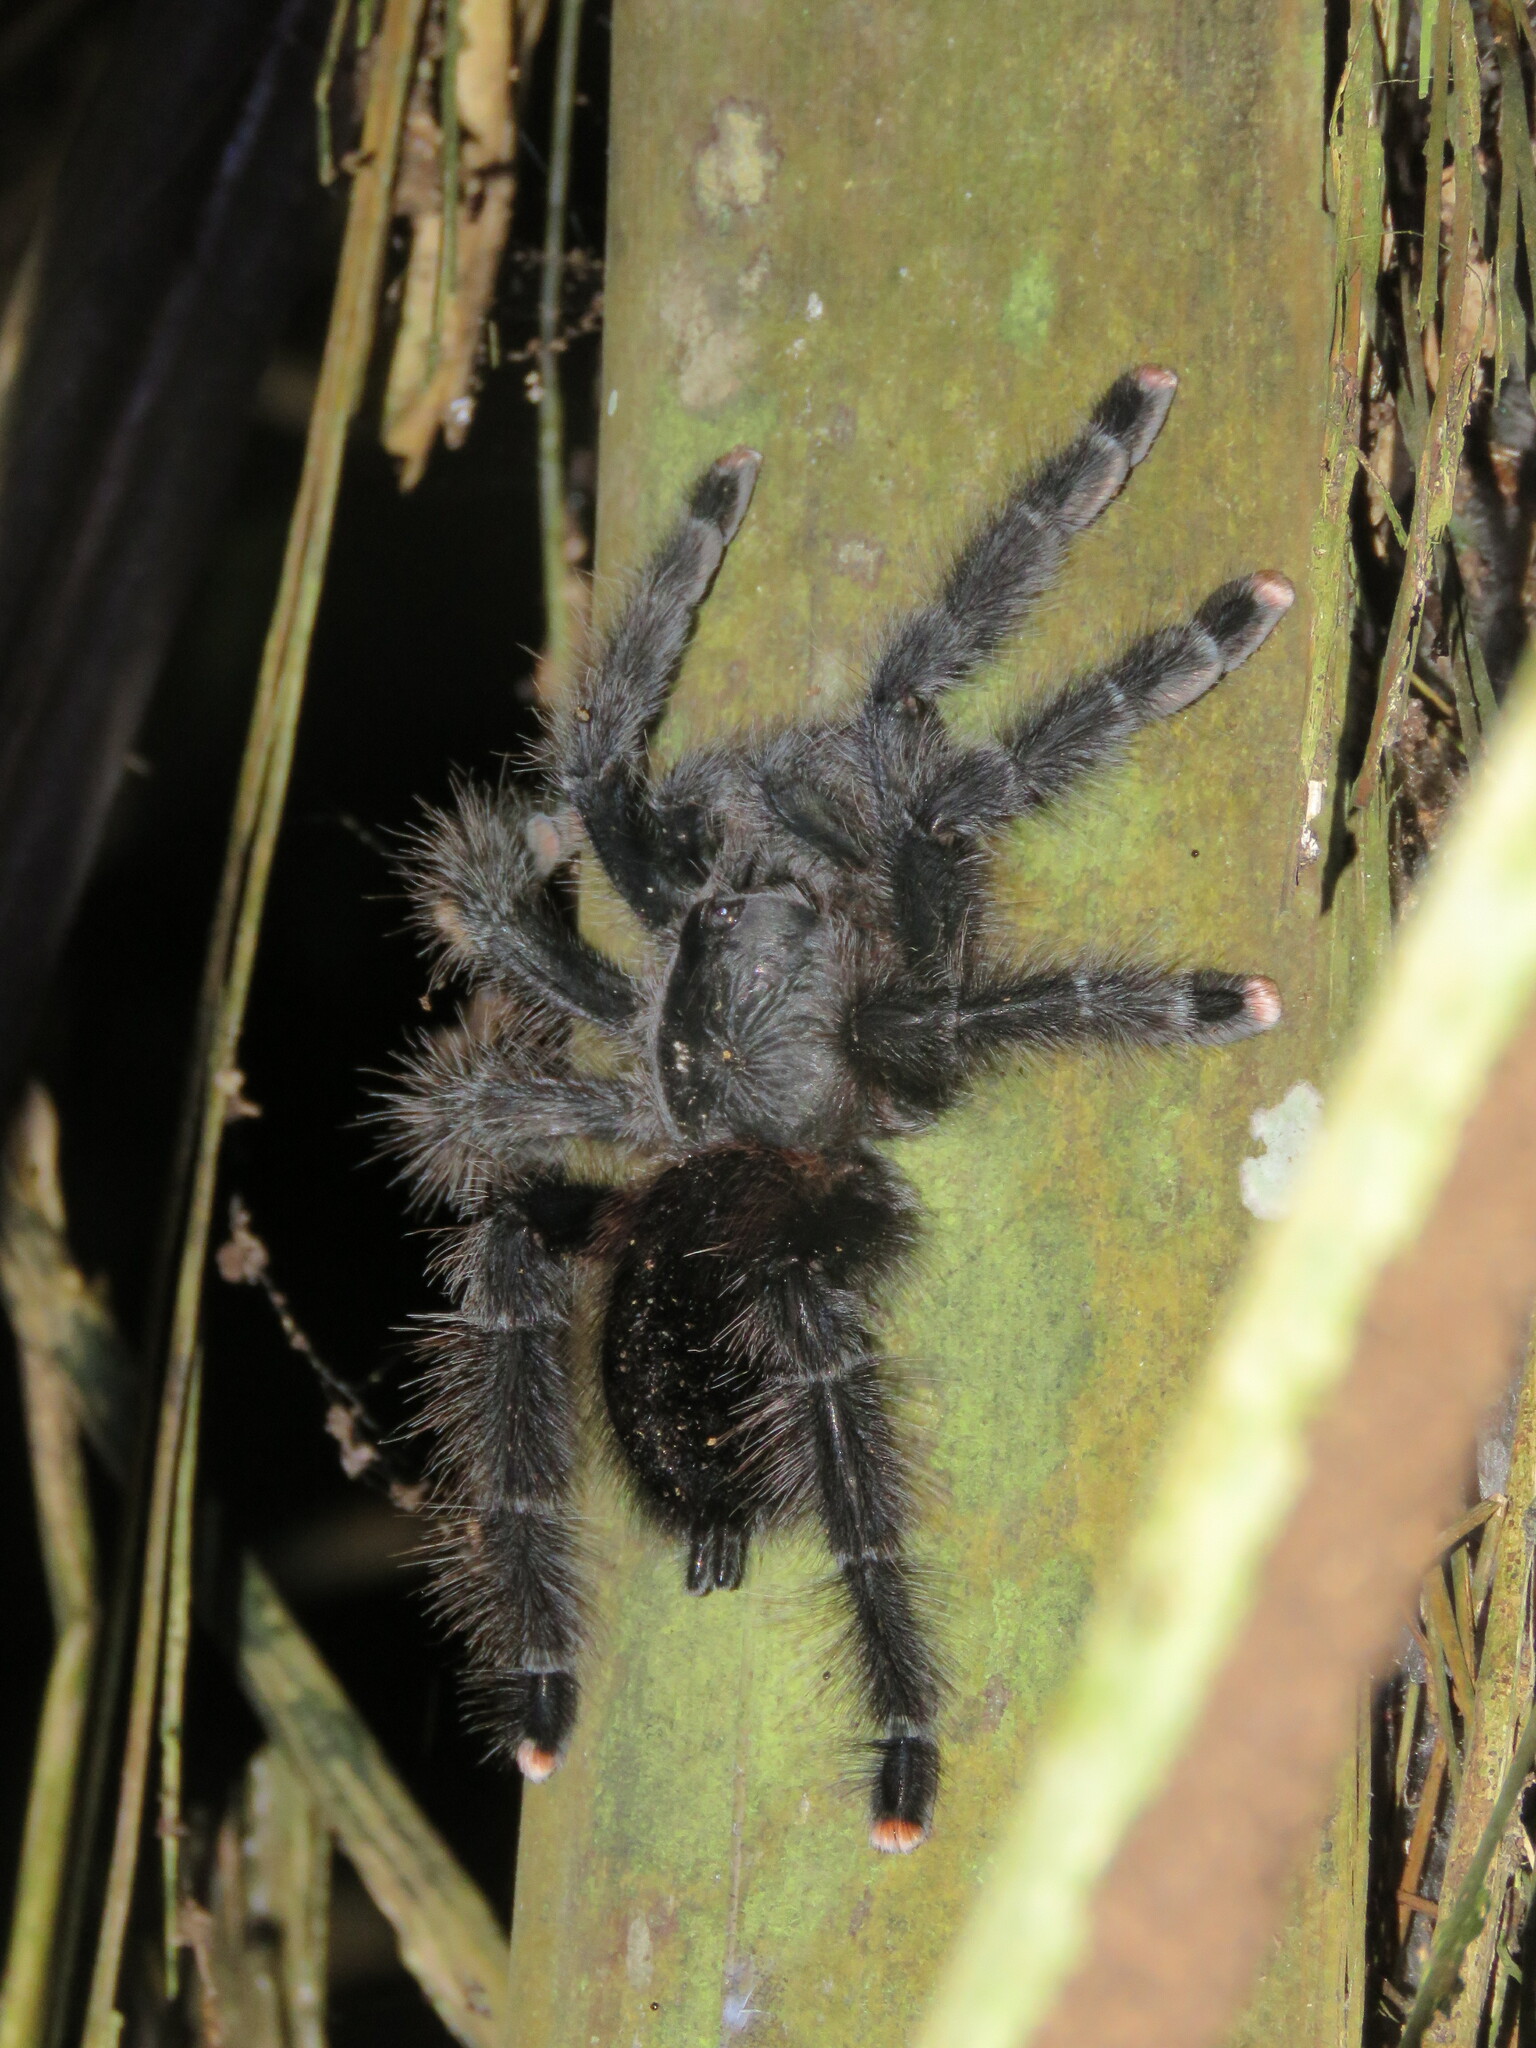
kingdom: Animalia
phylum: Arthropoda
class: Arachnida
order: Araneae
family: Theraphosidae
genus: Avicularia
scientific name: Avicularia avicularia
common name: Tarantula spiders
